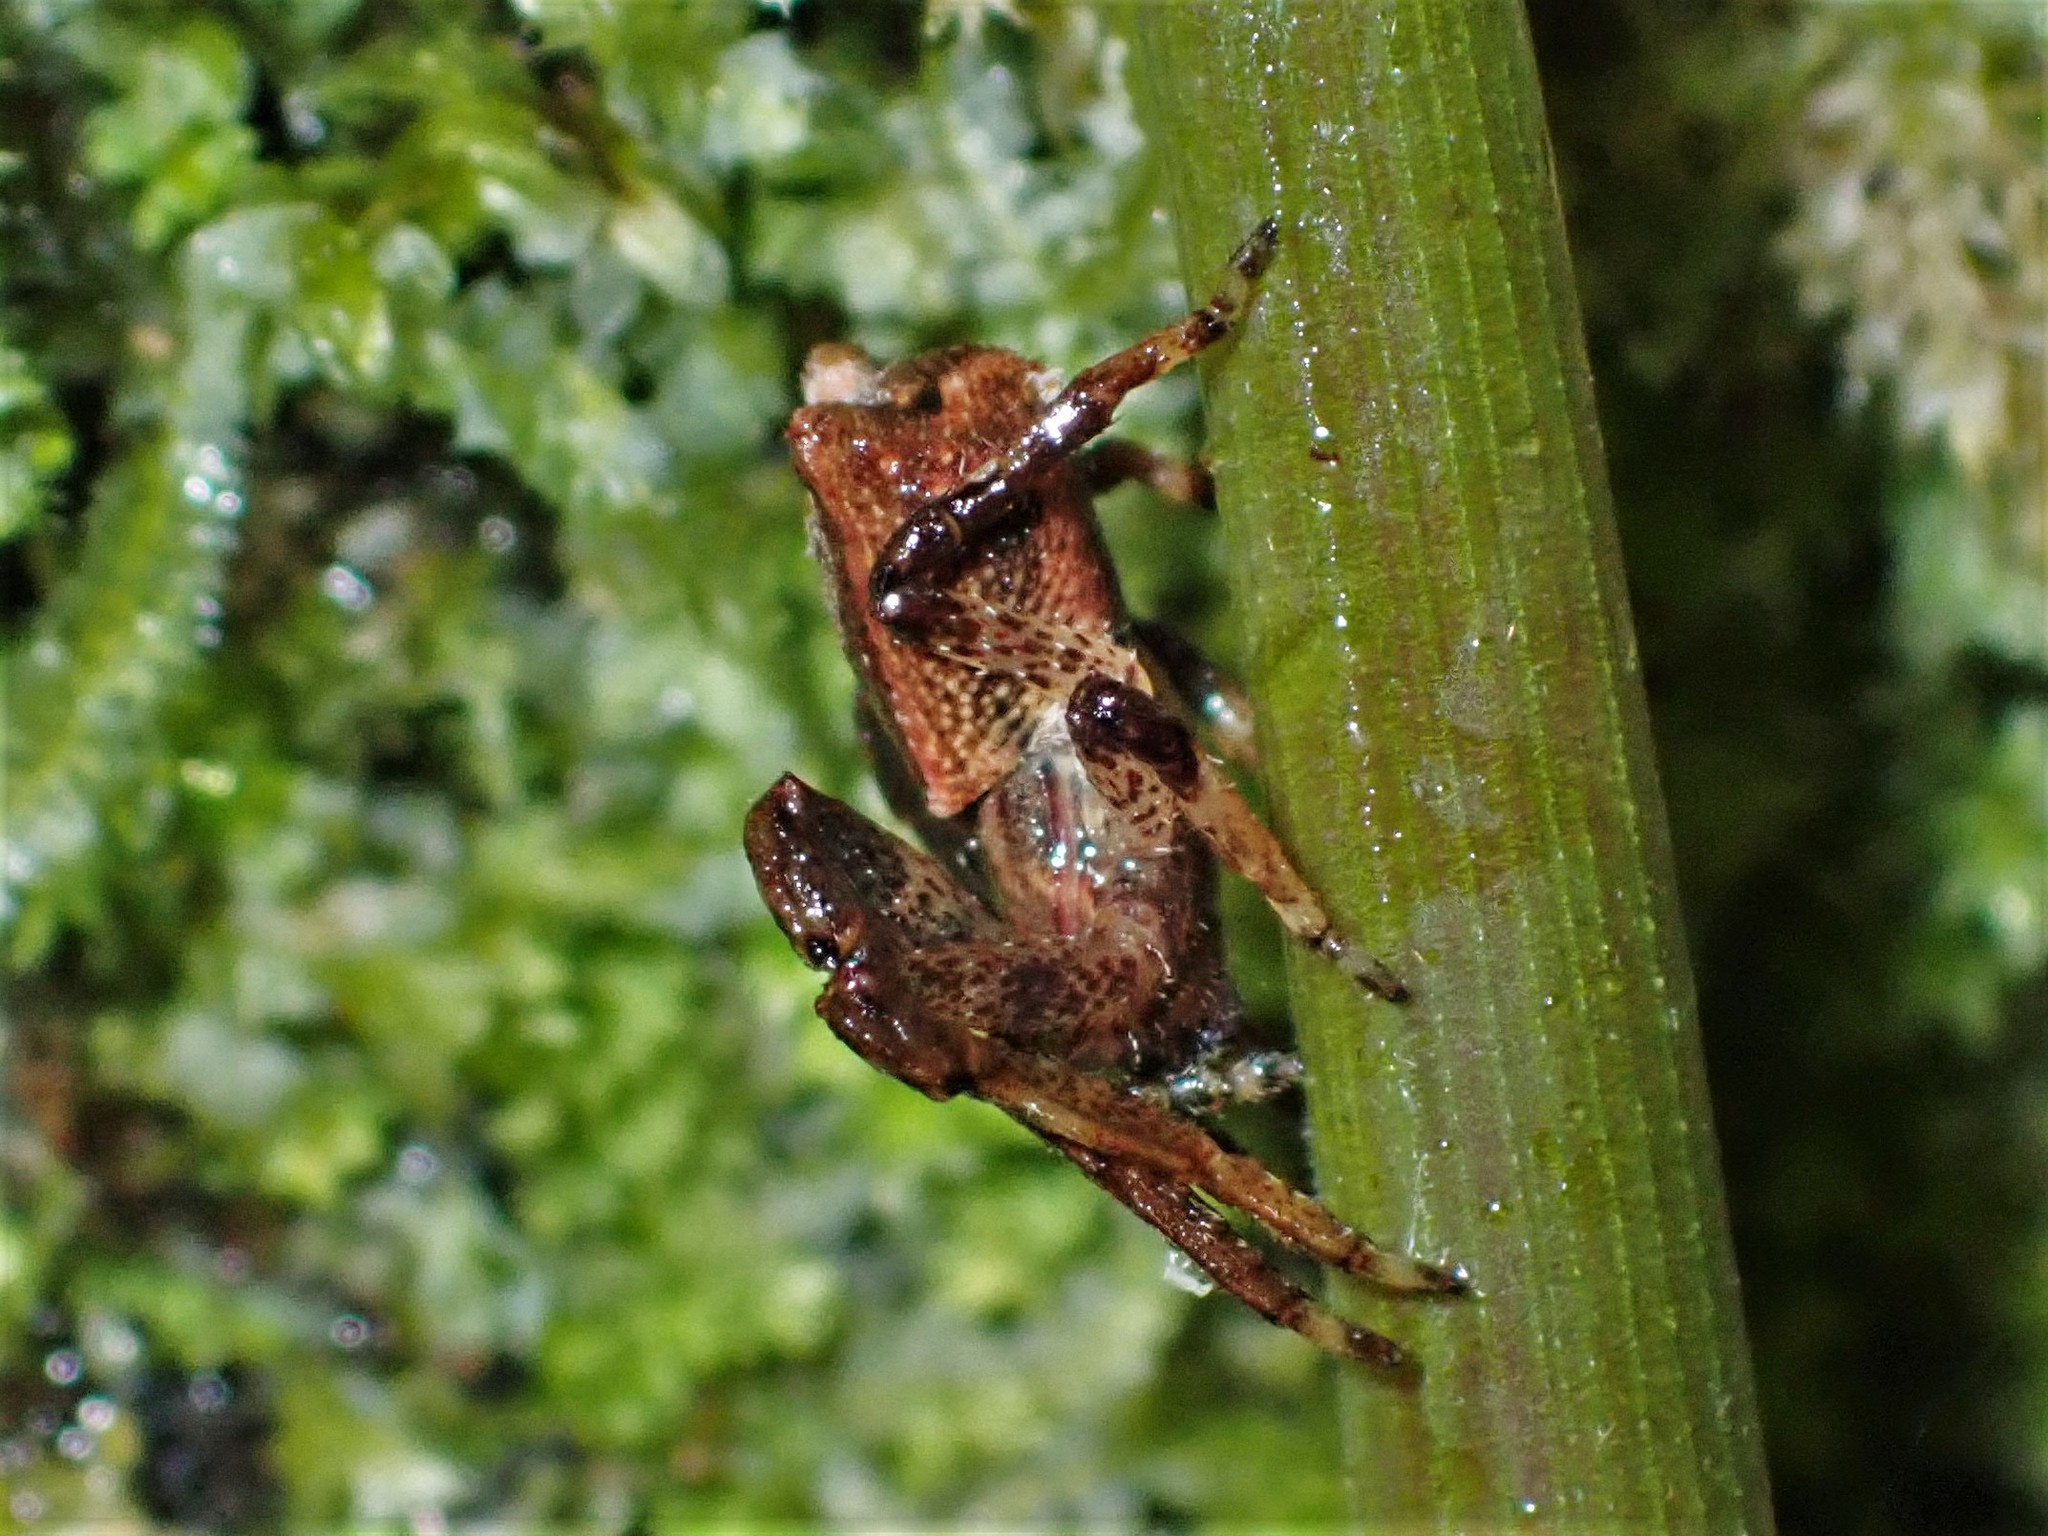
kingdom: Animalia
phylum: Arthropoda
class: Arachnida
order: Araneae
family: Thomisidae
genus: Sidymella
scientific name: Sidymella angularis
